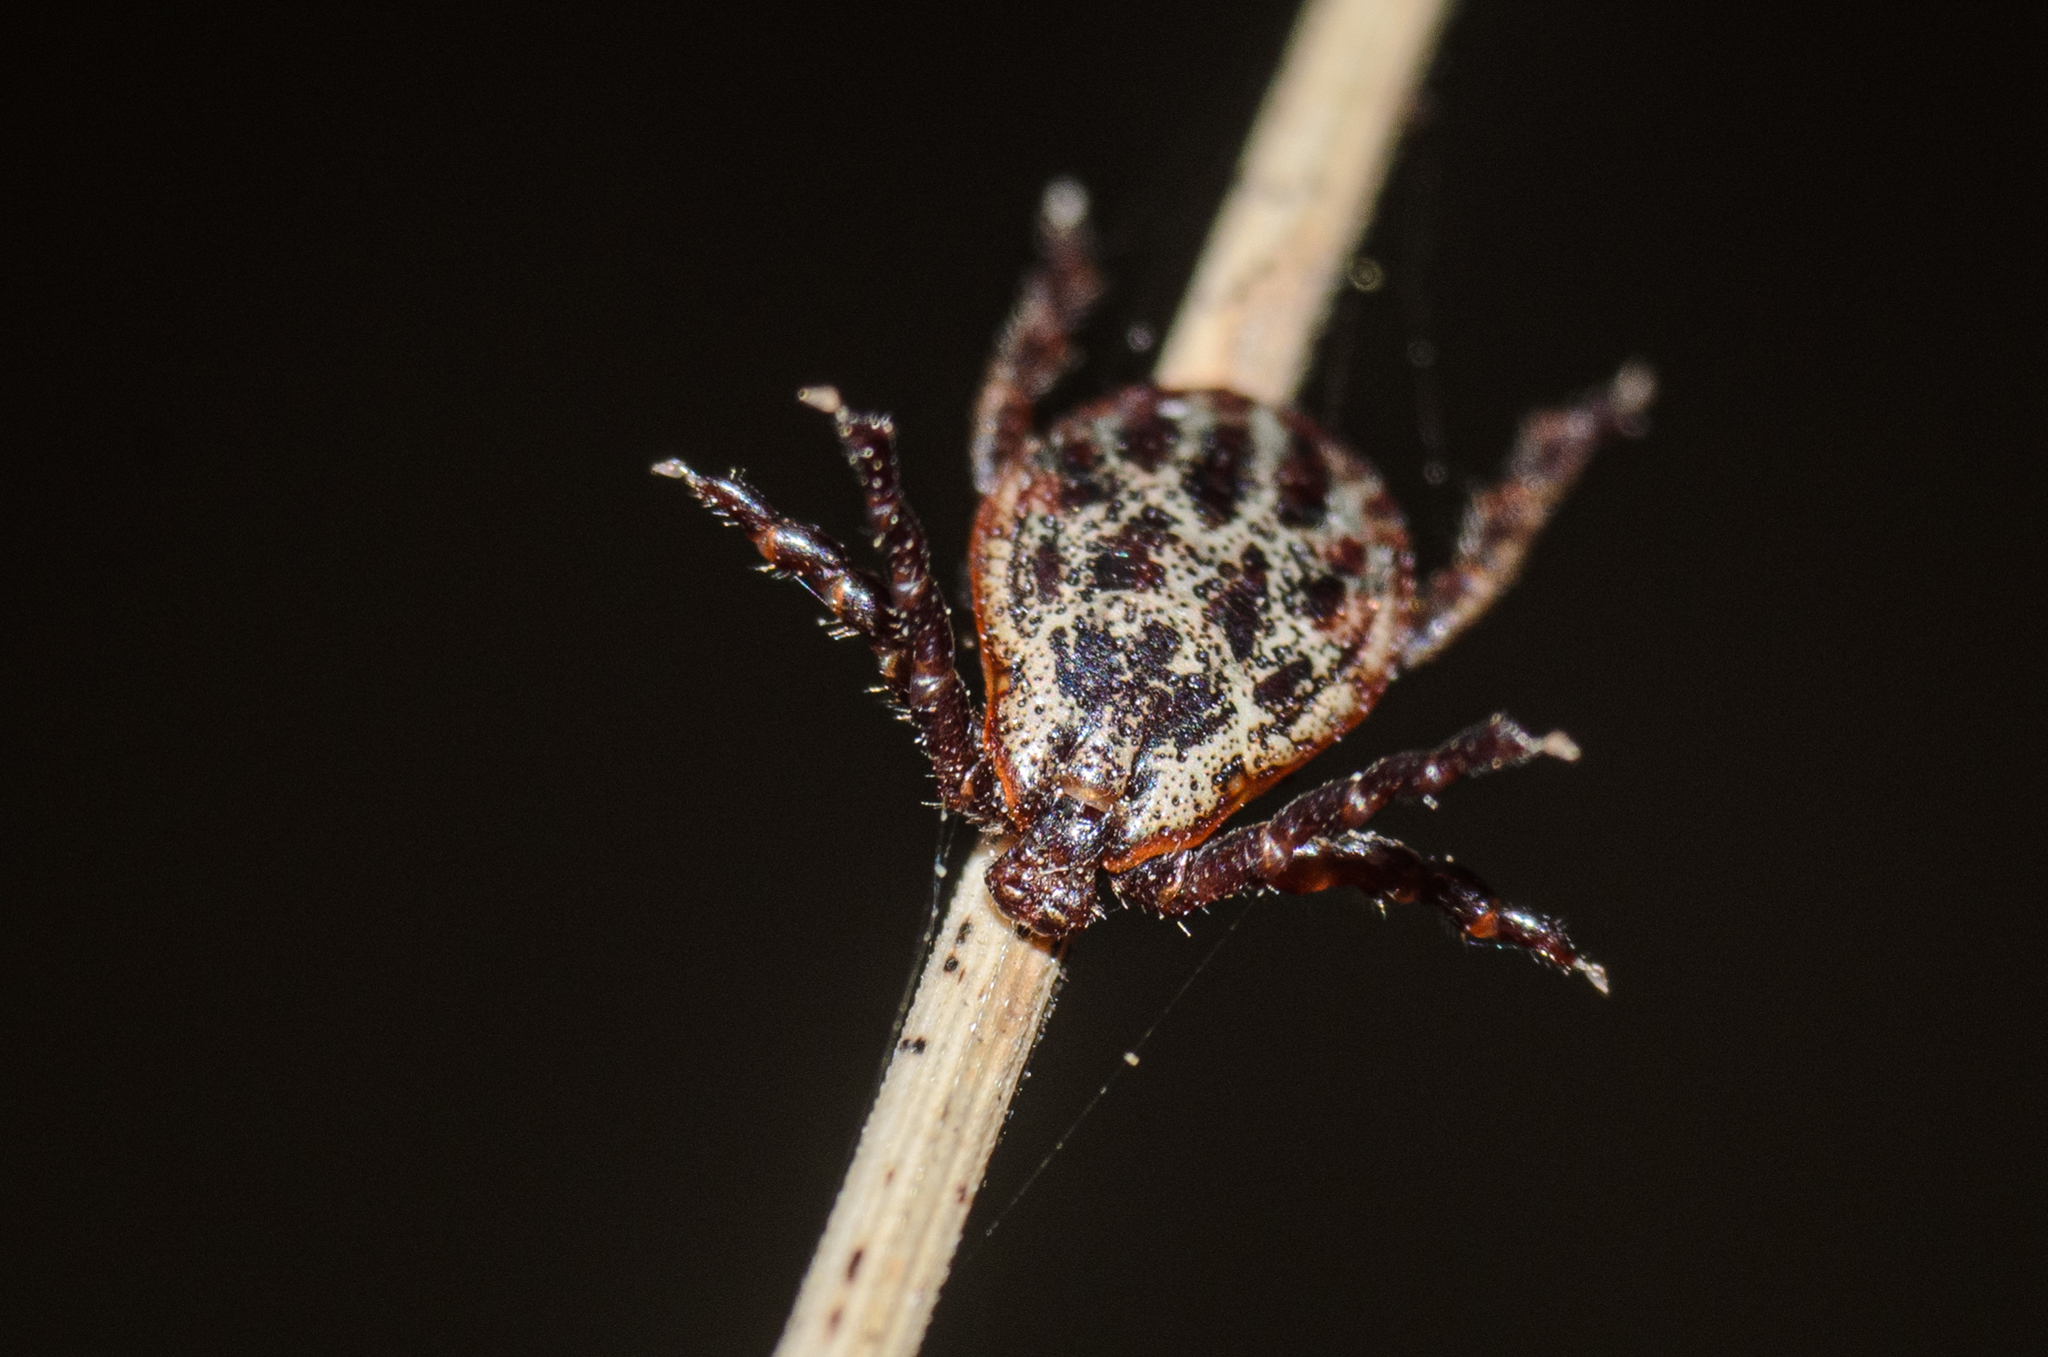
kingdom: Animalia
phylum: Arthropoda
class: Arachnida
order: Ixodida
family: Ixodidae
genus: Dermacentor
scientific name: Dermacentor reticulatus
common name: Ornate cow tick
